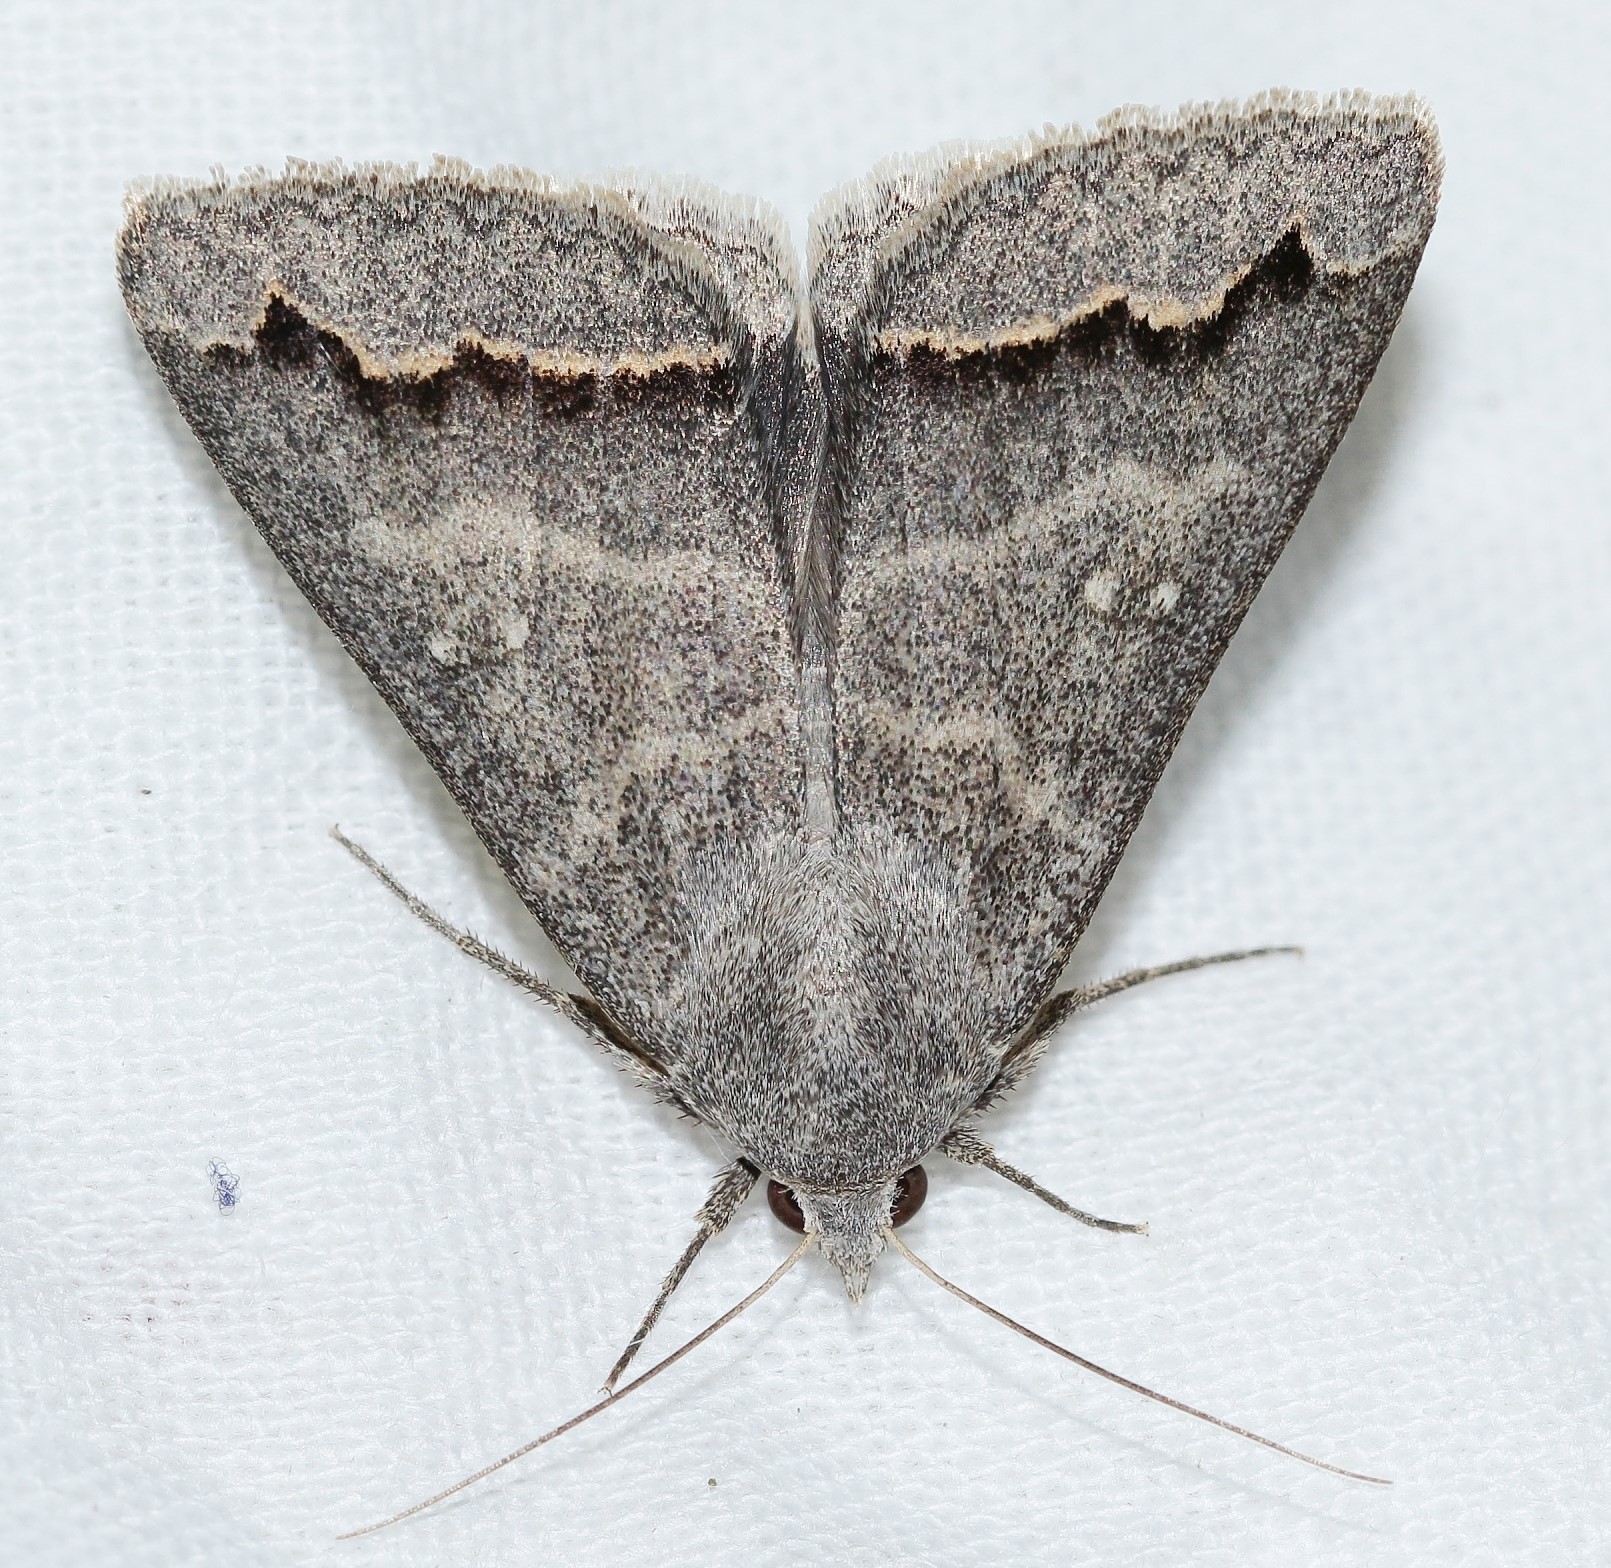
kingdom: Animalia
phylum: Arthropoda
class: Insecta
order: Lepidoptera
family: Erebidae
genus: Clytie
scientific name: Clytie gracilis
